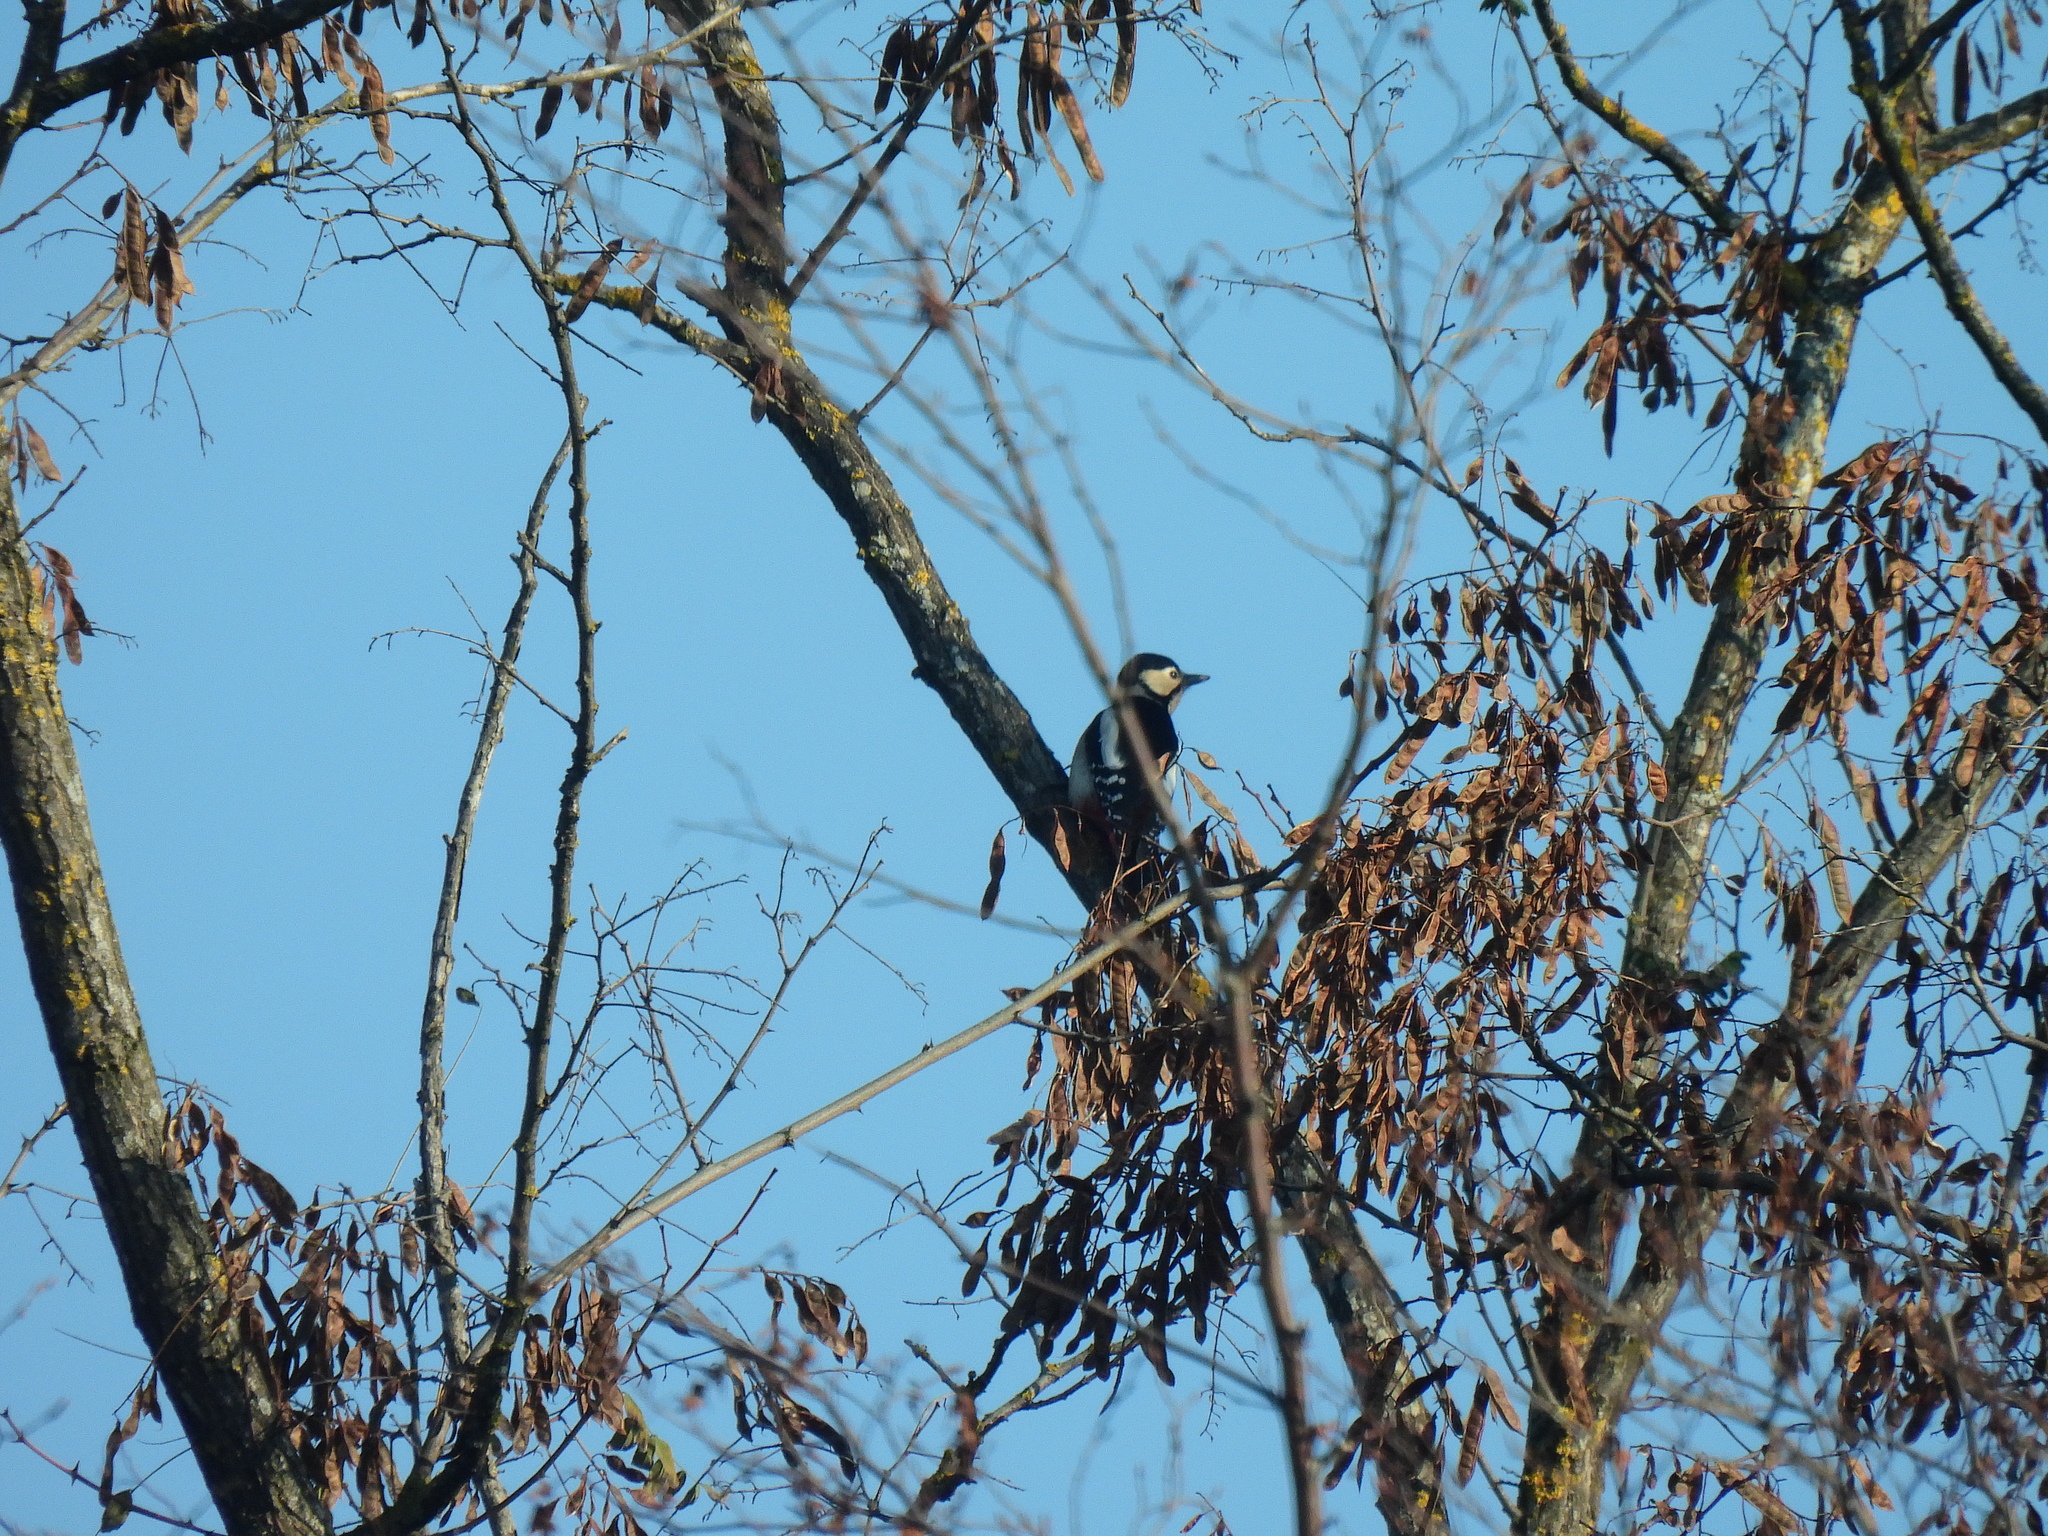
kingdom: Animalia
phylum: Chordata
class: Aves
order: Piciformes
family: Picidae
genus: Dendrocopos
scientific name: Dendrocopos major
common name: Great spotted woodpecker
